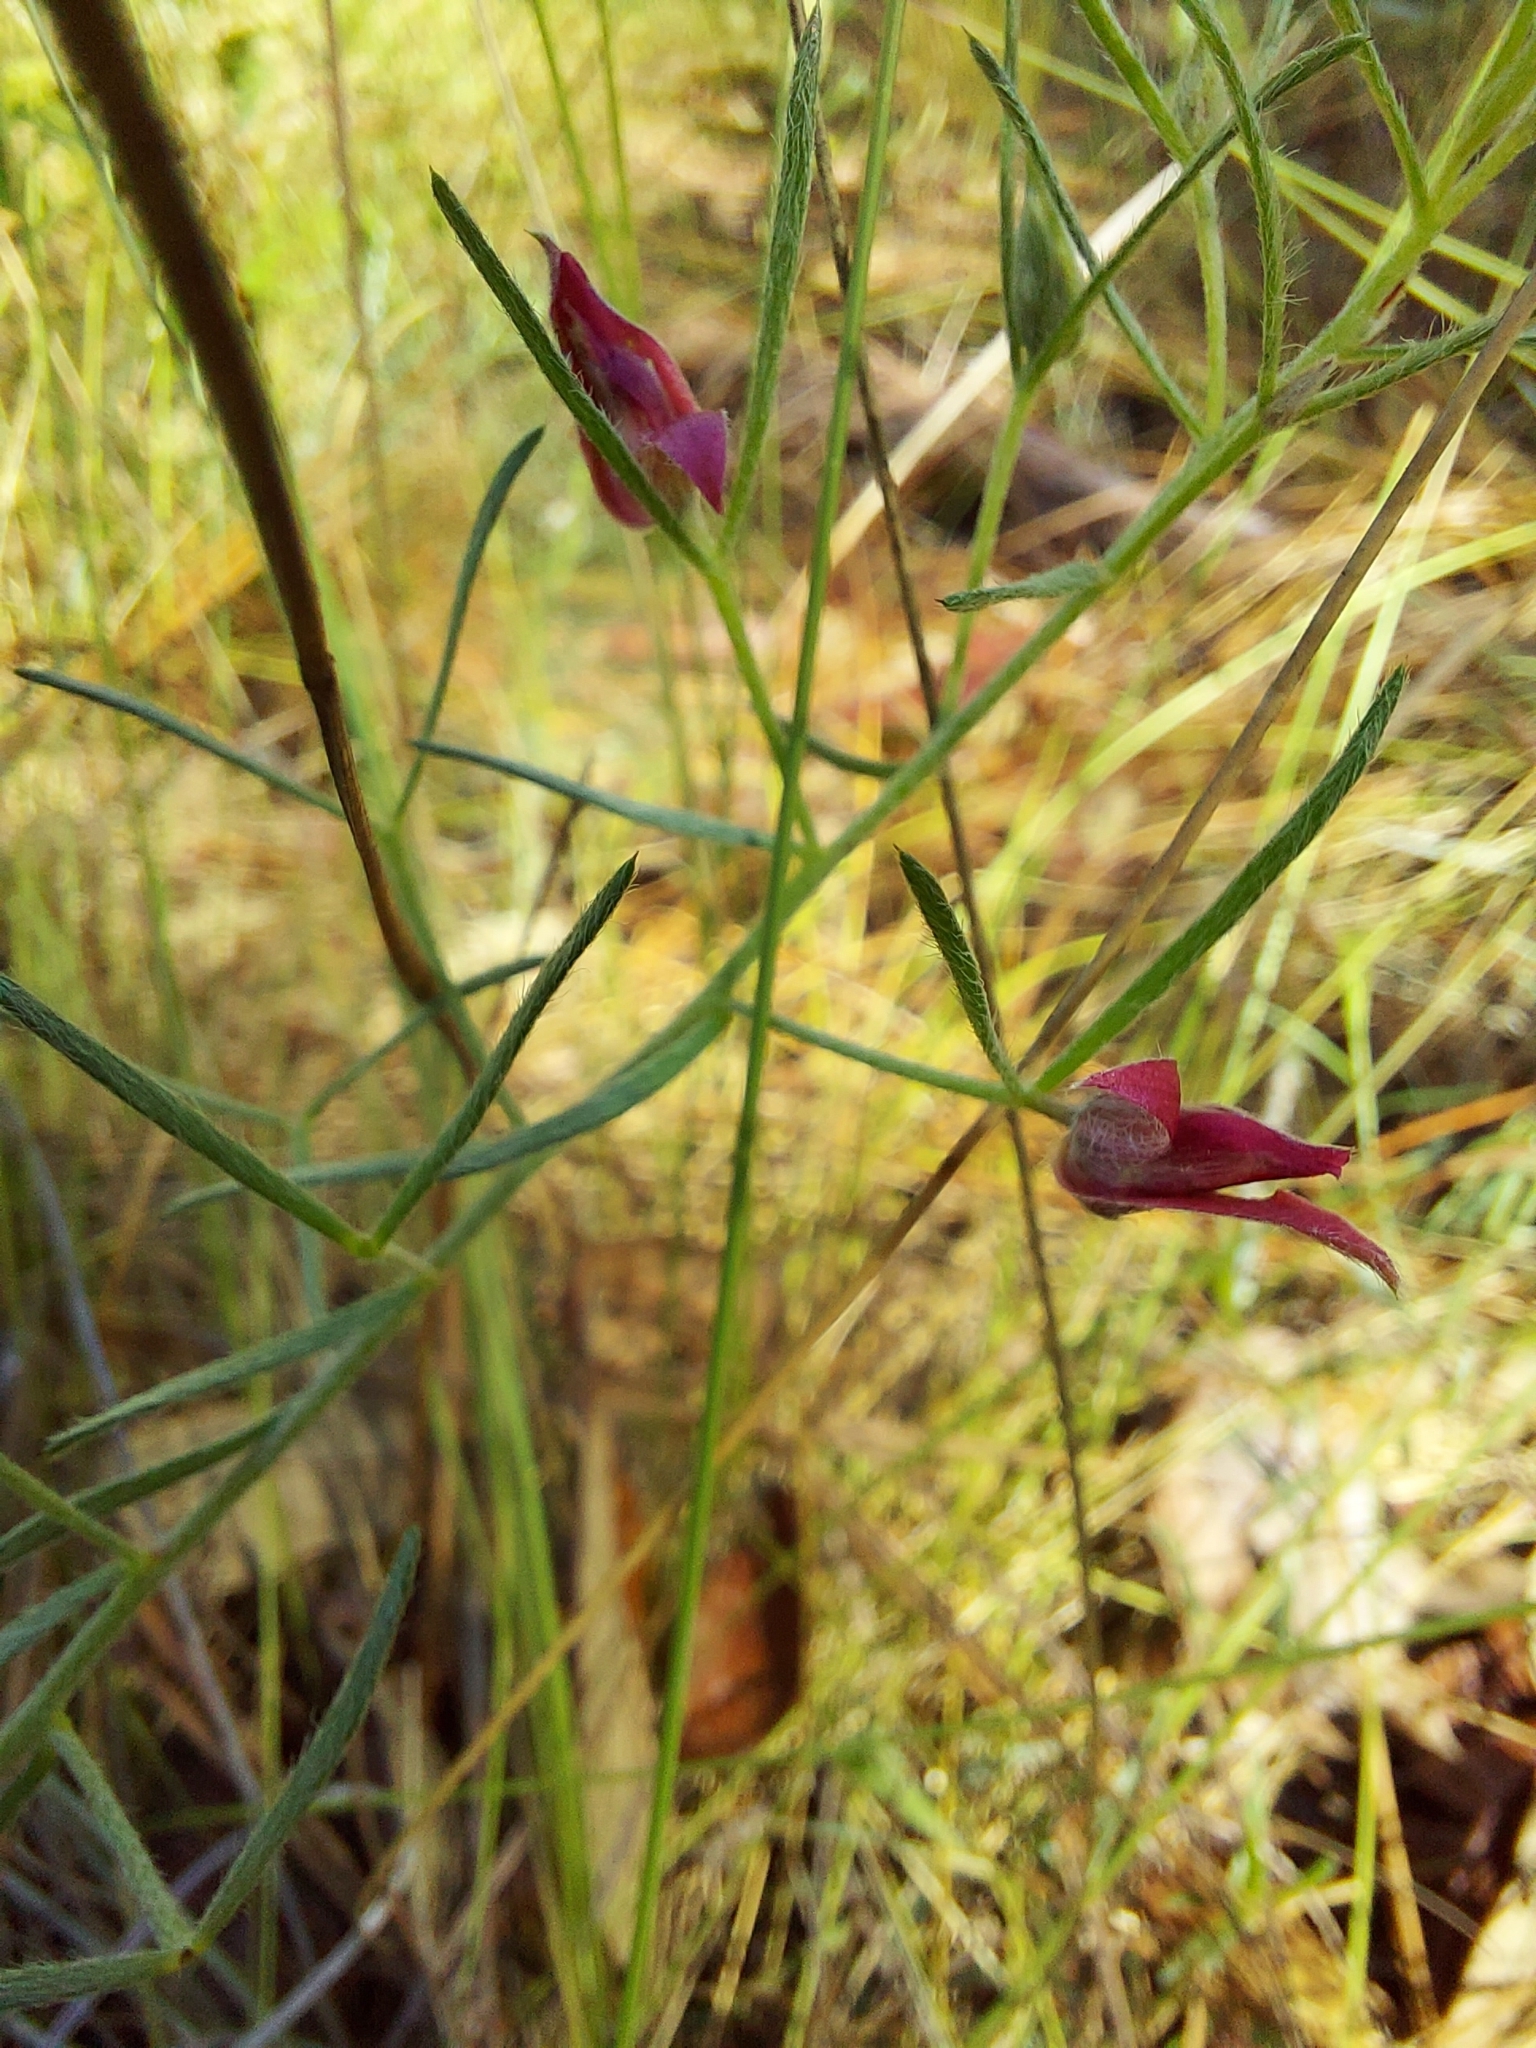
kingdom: Plantae
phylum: Tracheophyta
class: Magnoliopsida
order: Zygophyllales
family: Krameriaceae
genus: Krameria
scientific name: Krameria lanceolata
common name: Ratany
